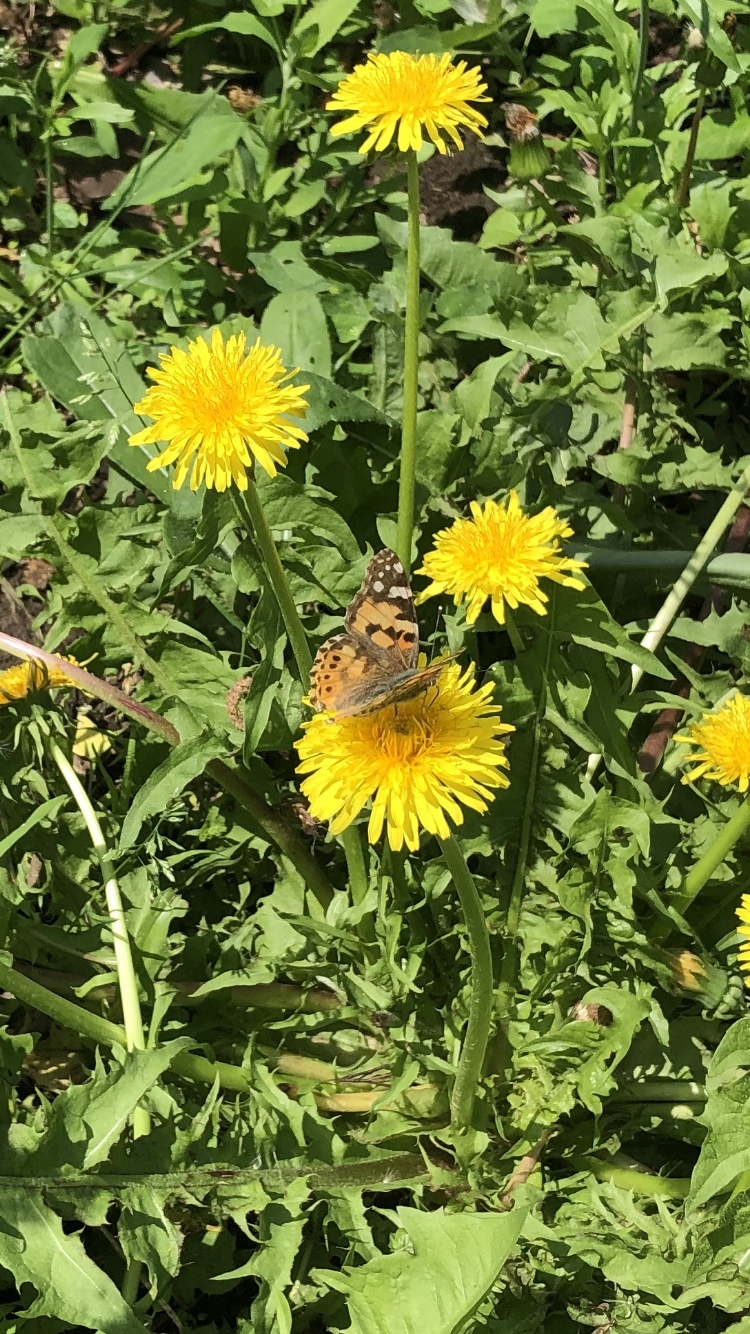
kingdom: Animalia
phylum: Arthropoda
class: Insecta
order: Lepidoptera
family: Nymphalidae
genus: Vanessa
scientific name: Vanessa cardui
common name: Painted lady
